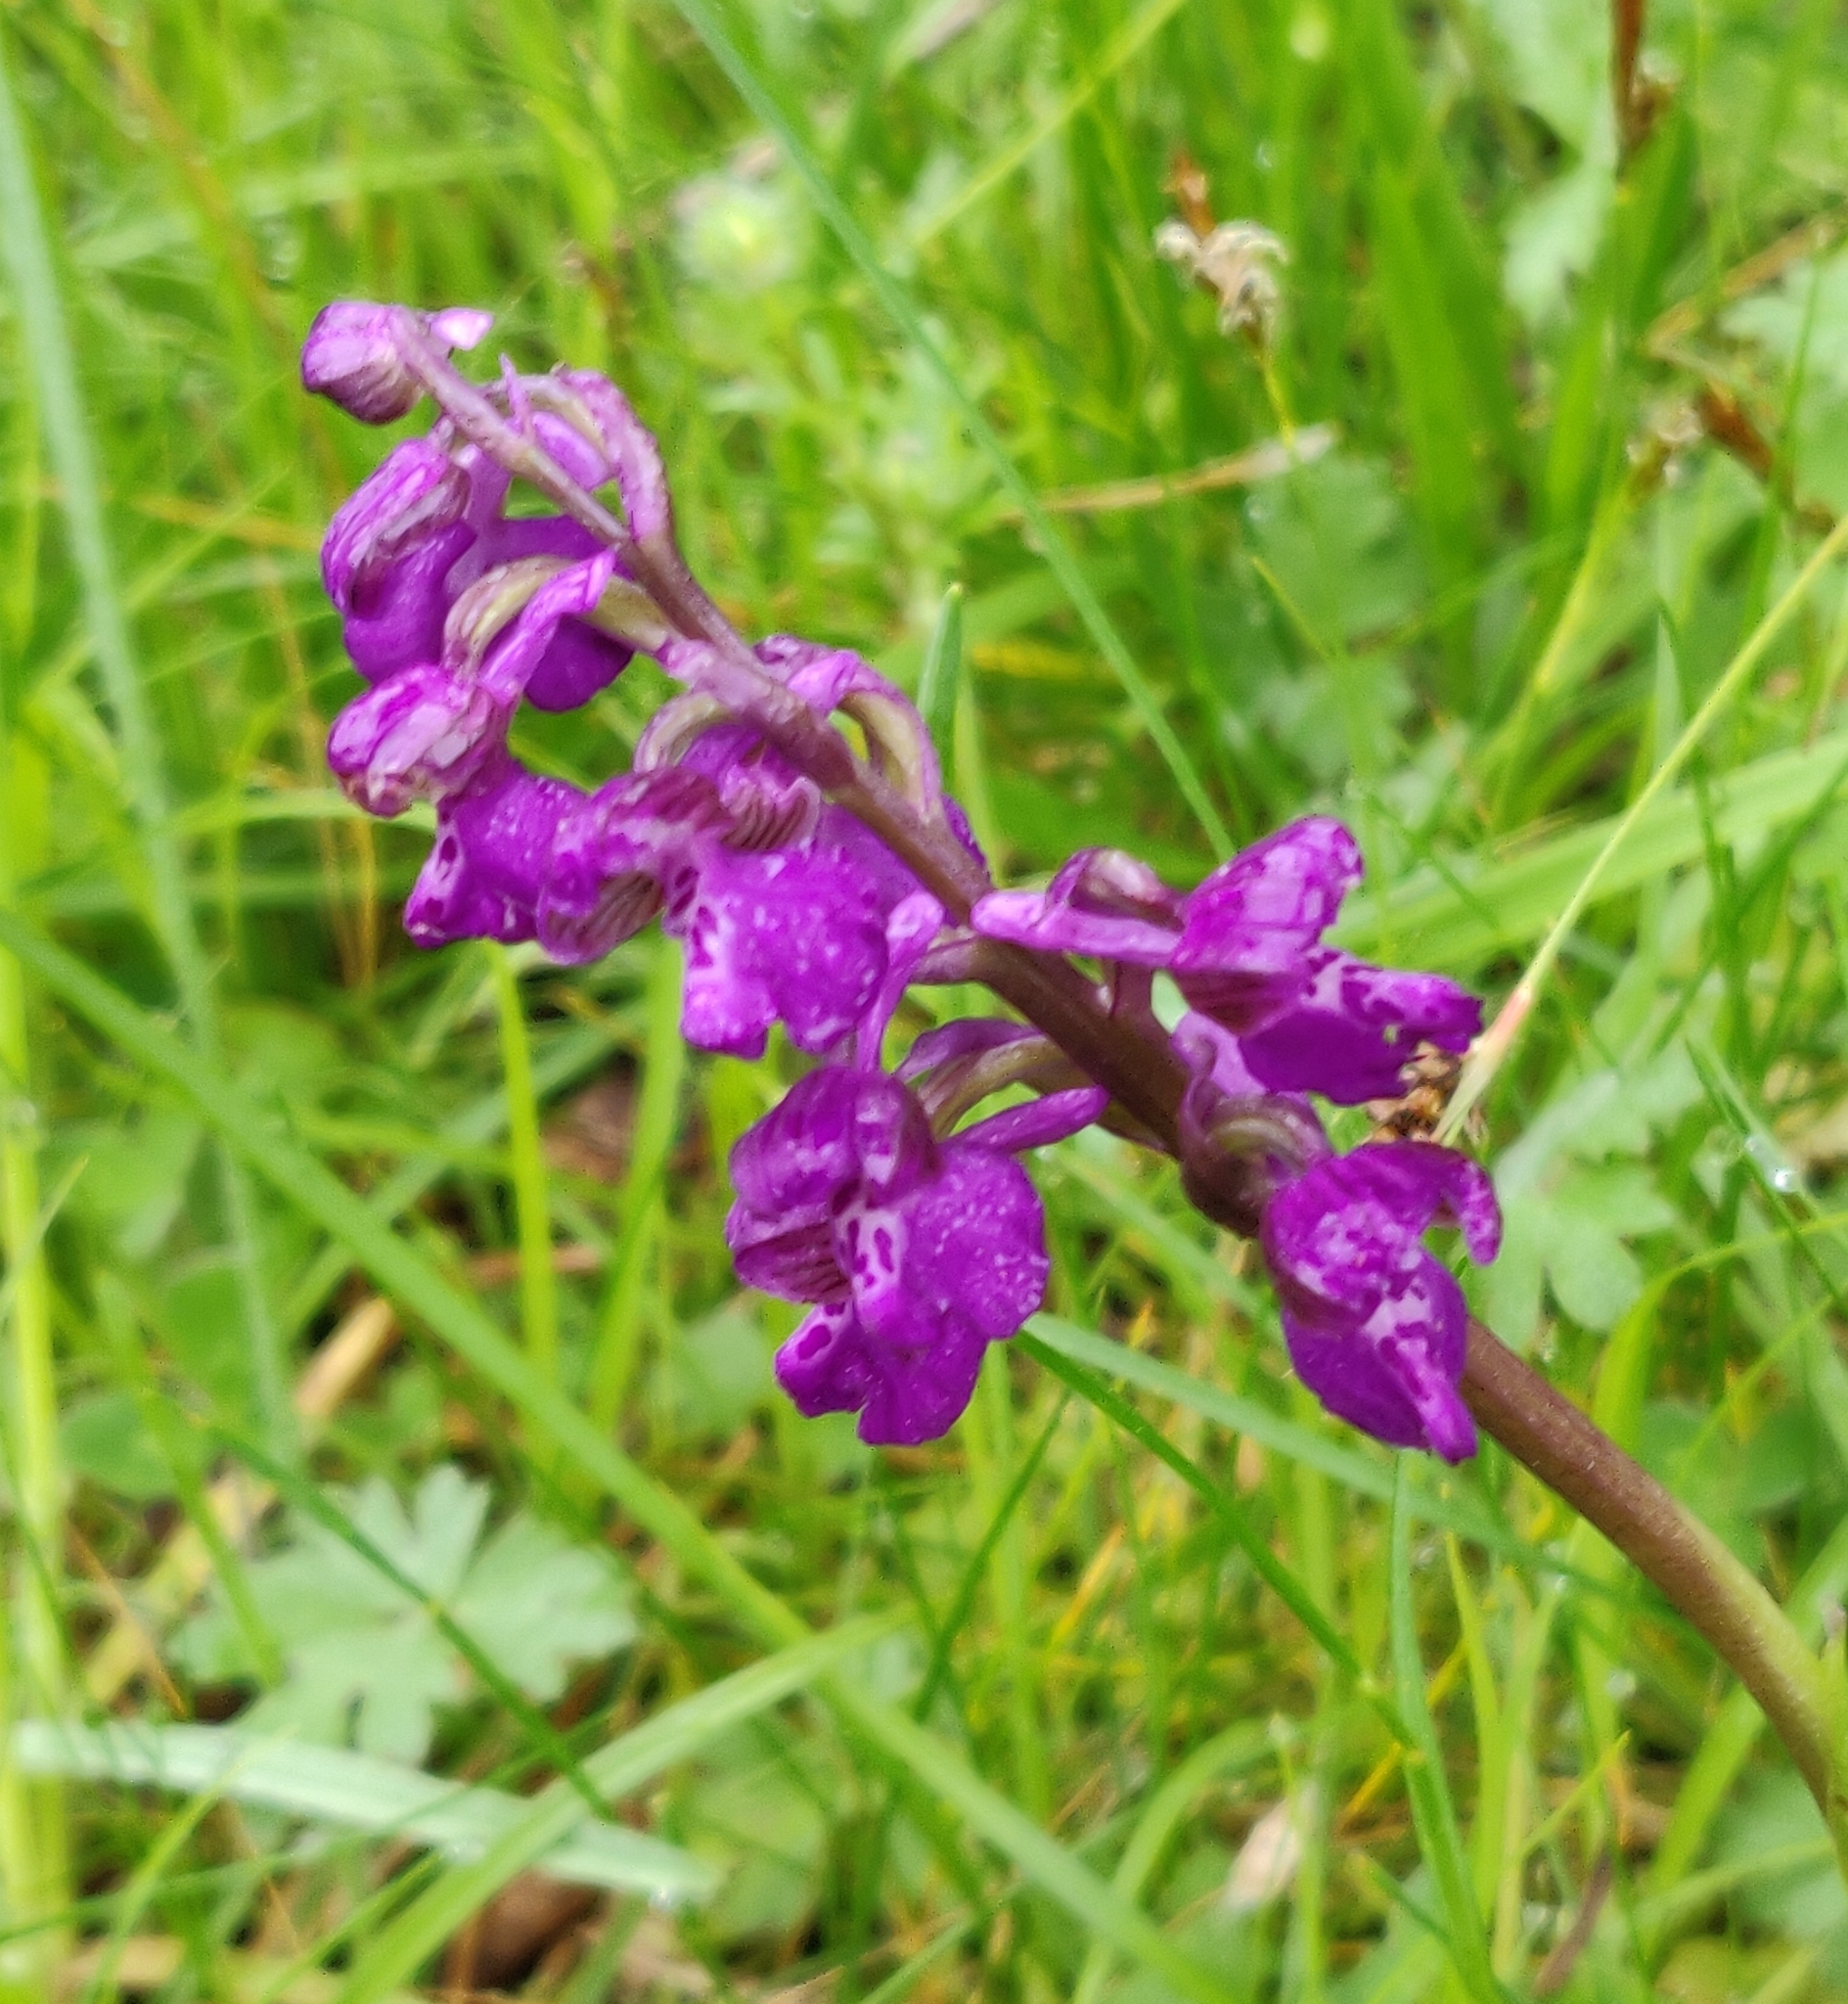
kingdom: Plantae
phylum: Tracheophyta
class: Liliopsida
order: Asparagales
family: Orchidaceae
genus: Anacamptis
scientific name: Anacamptis morio
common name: Green-winged orchid
